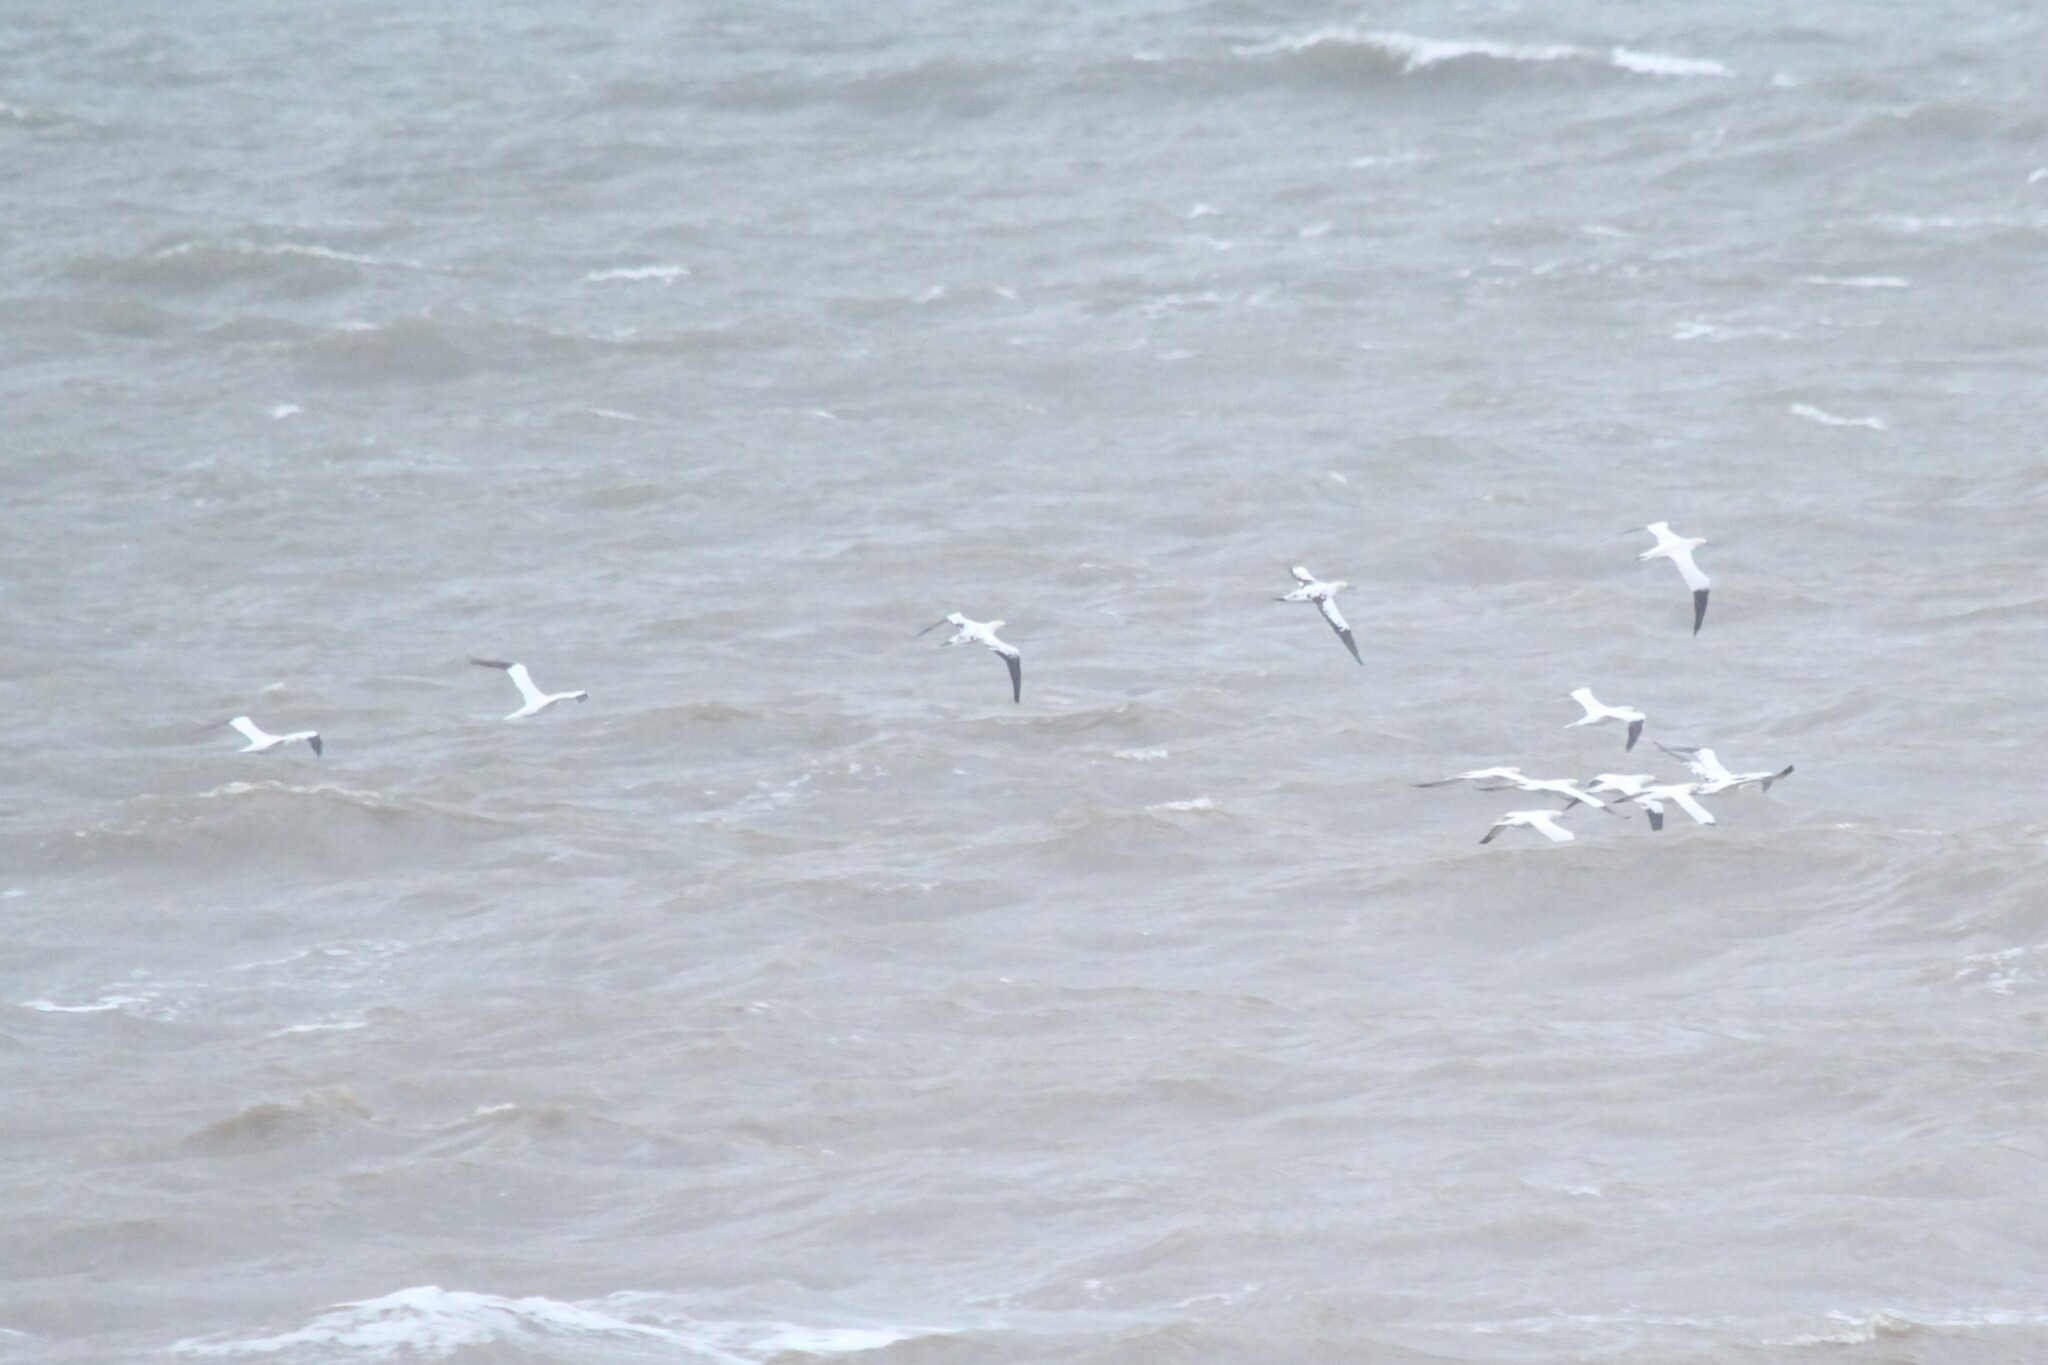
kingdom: Animalia
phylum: Chordata
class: Aves
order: Suliformes
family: Sulidae
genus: Morus
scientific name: Morus bassanus
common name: Northern gannet
